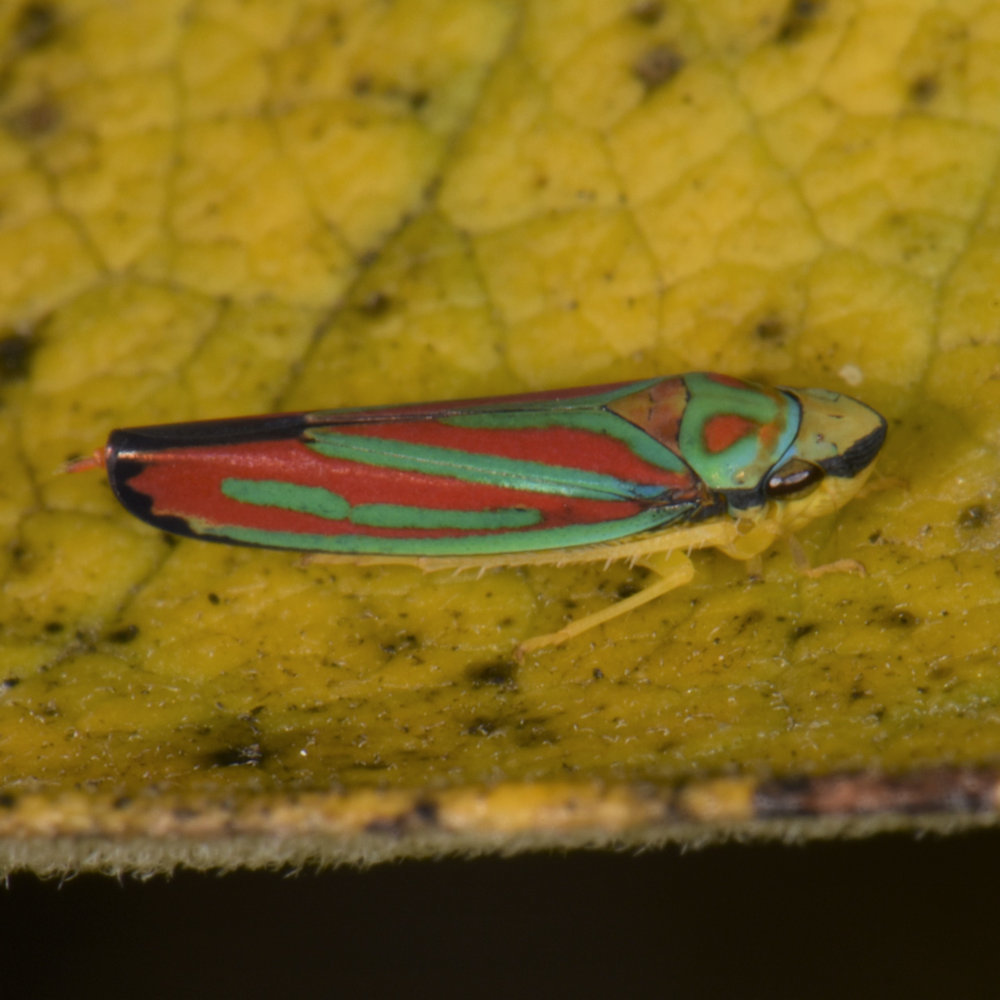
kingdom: Animalia
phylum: Arthropoda
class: Insecta
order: Hemiptera
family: Cicadellidae
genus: Graphocephala
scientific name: Graphocephala coccinea
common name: Candy-striped leafhopper
